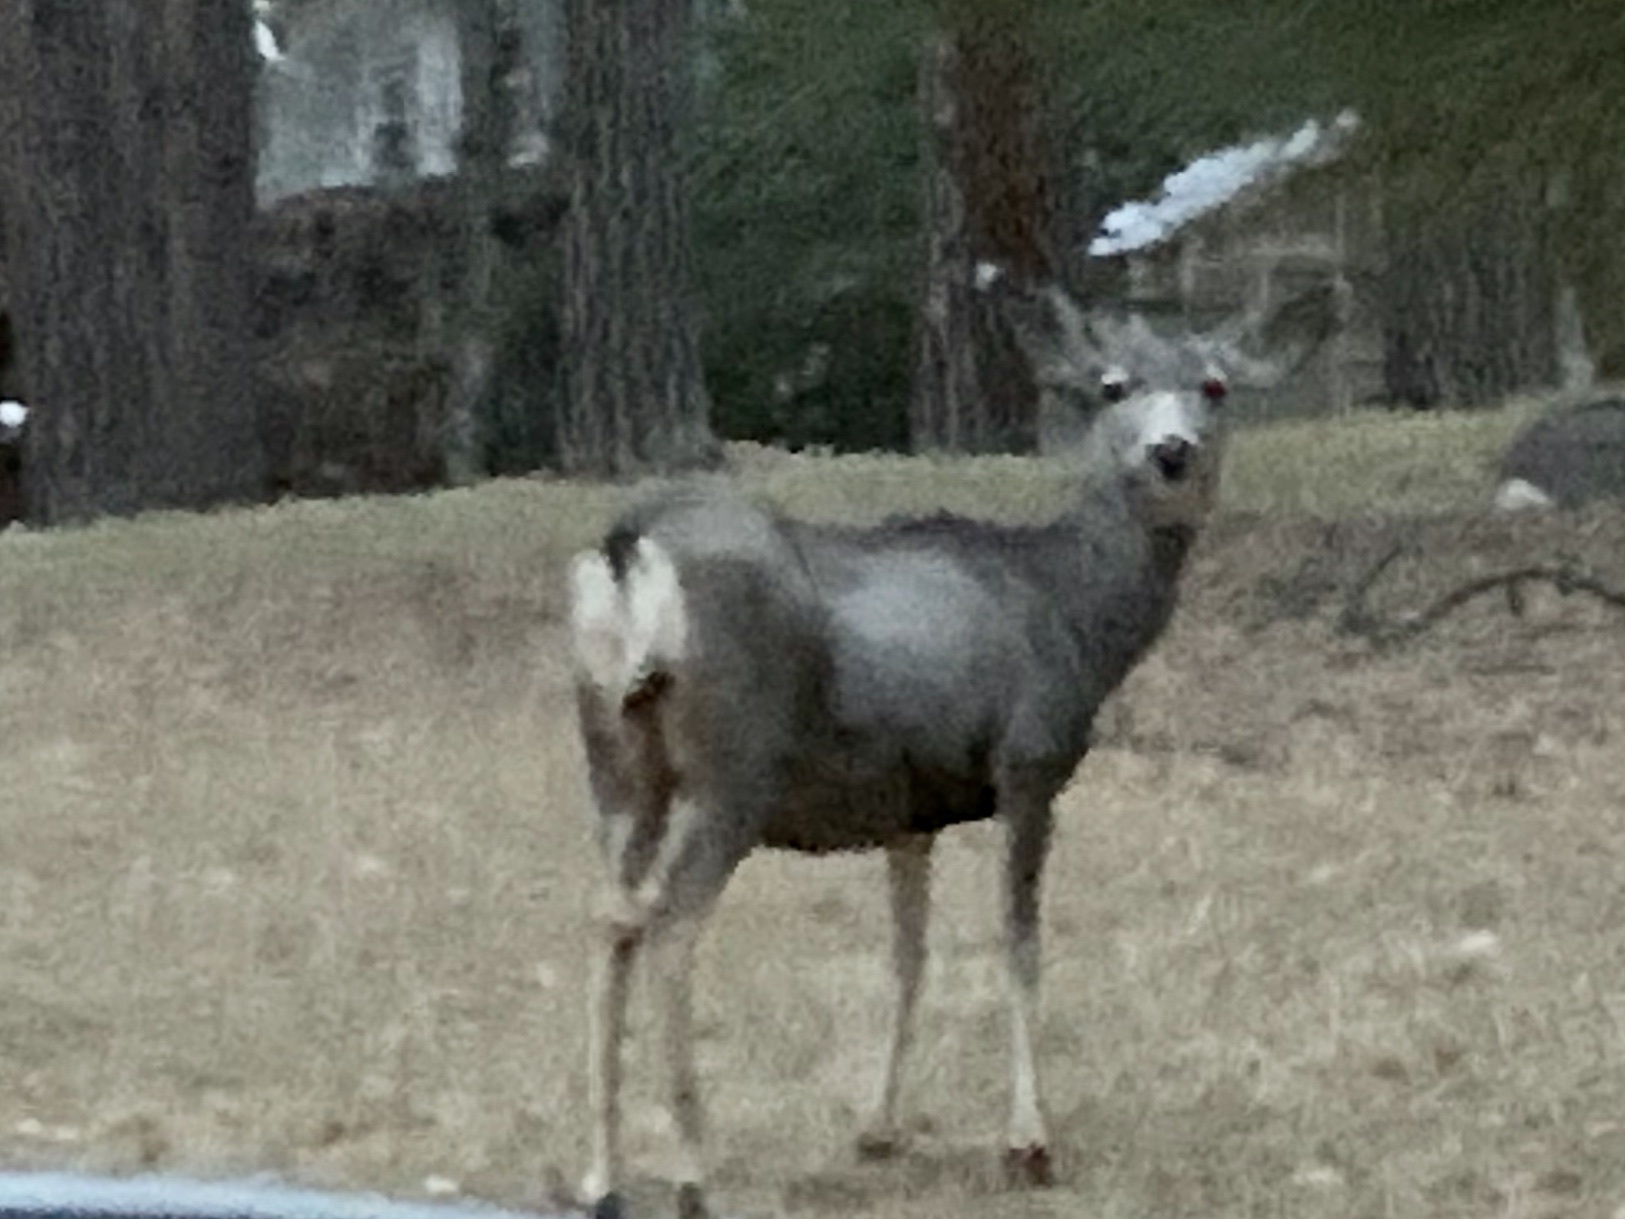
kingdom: Animalia
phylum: Chordata
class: Mammalia
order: Artiodactyla
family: Cervidae
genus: Odocoileus
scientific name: Odocoileus hemionus
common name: Mule deer
